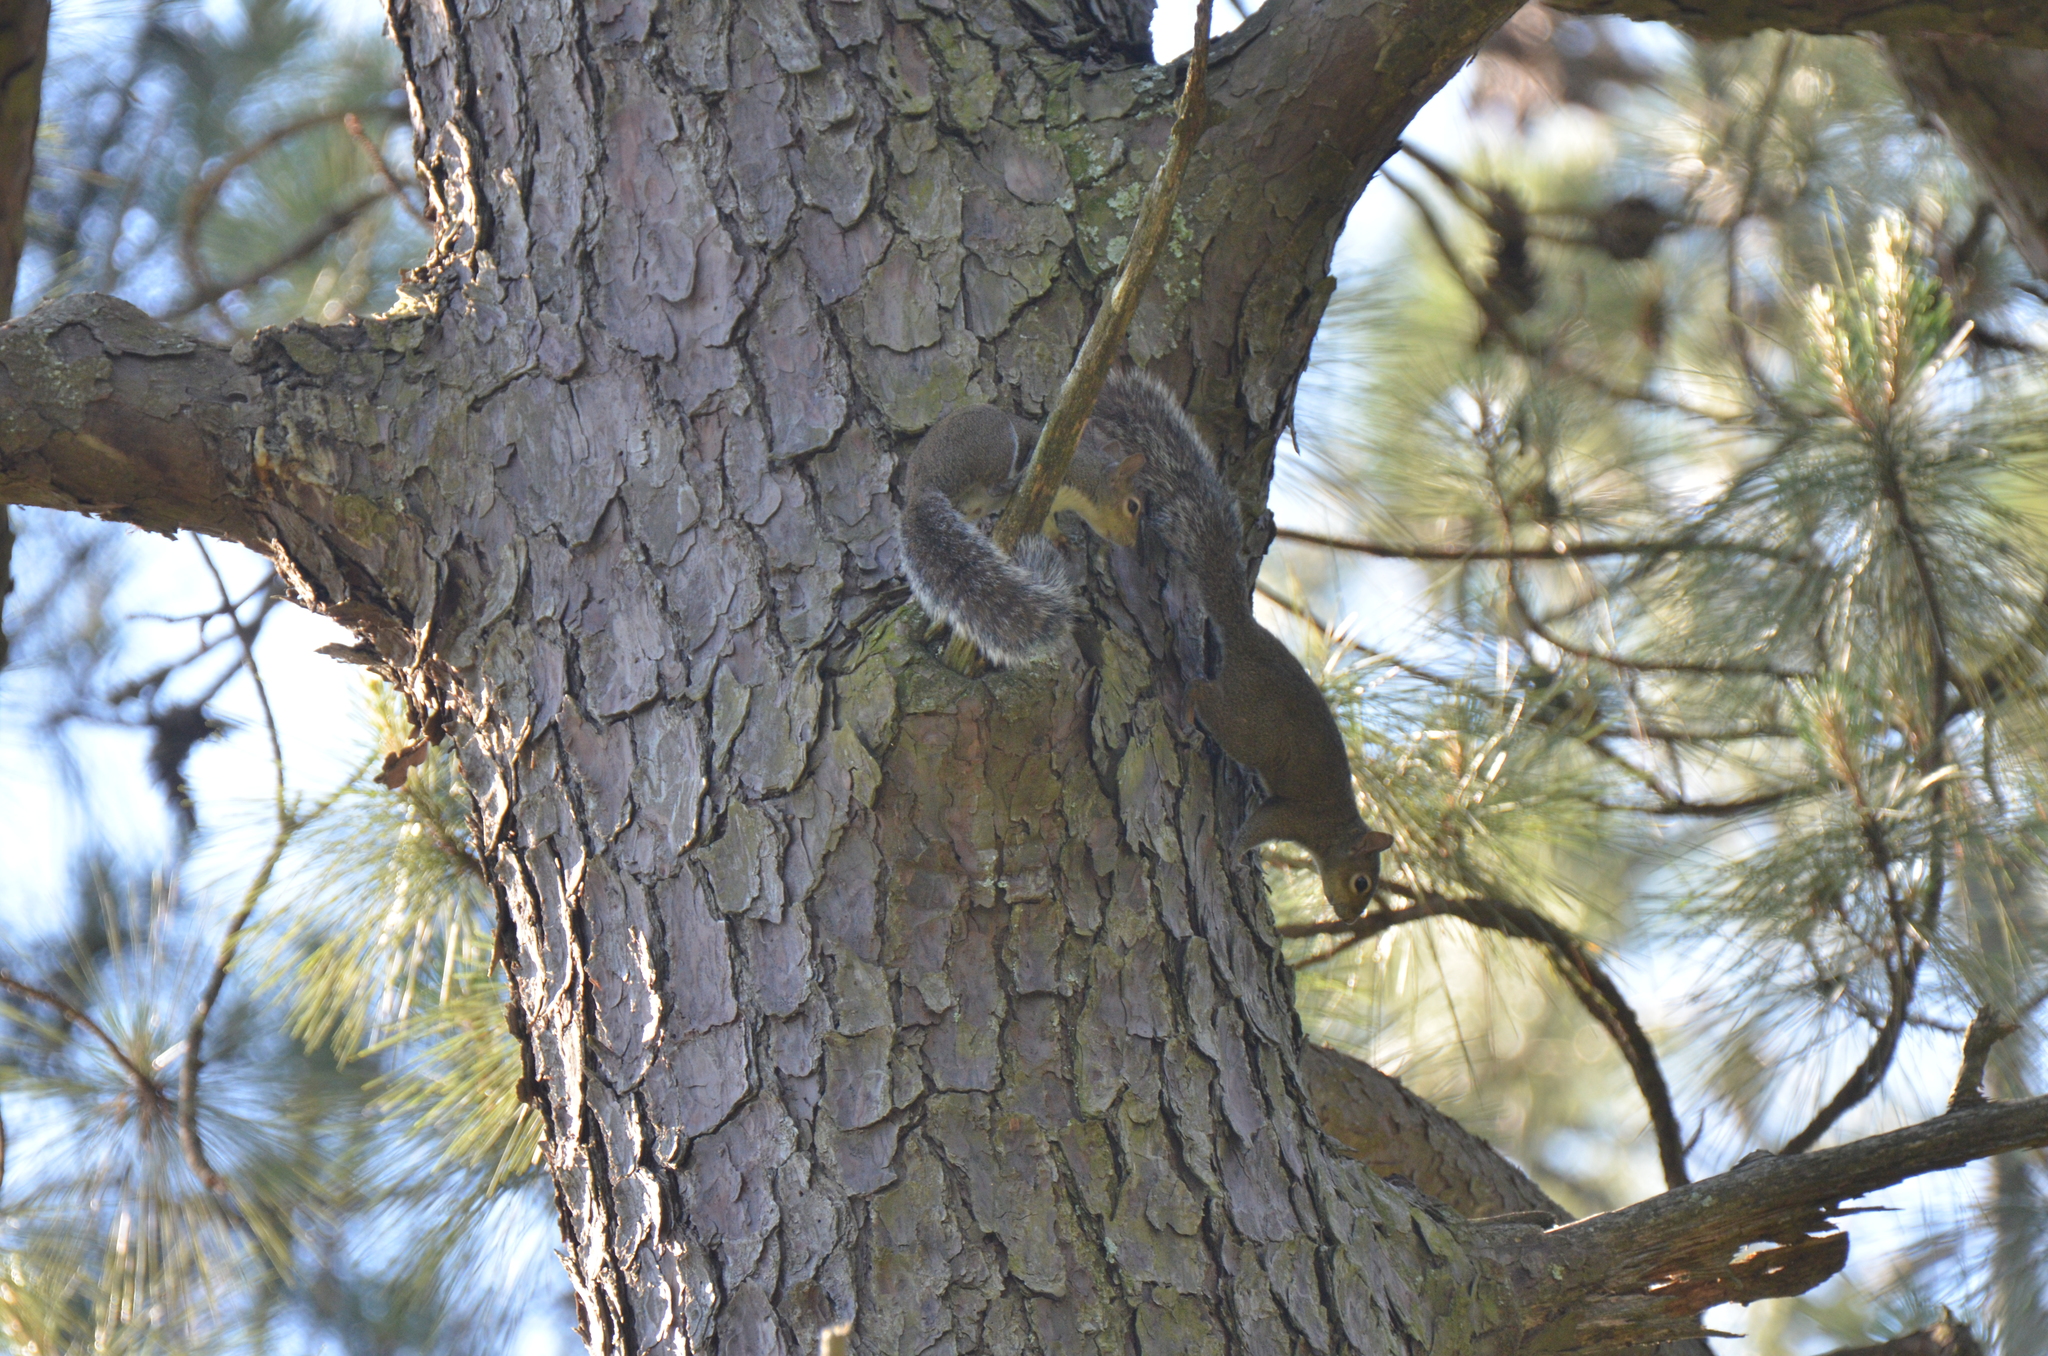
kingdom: Animalia
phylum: Chordata
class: Mammalia
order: Rodentia
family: Sciuridae
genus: Sciurus
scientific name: Sciurus carolinensis
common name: Eastern gray squirrel
